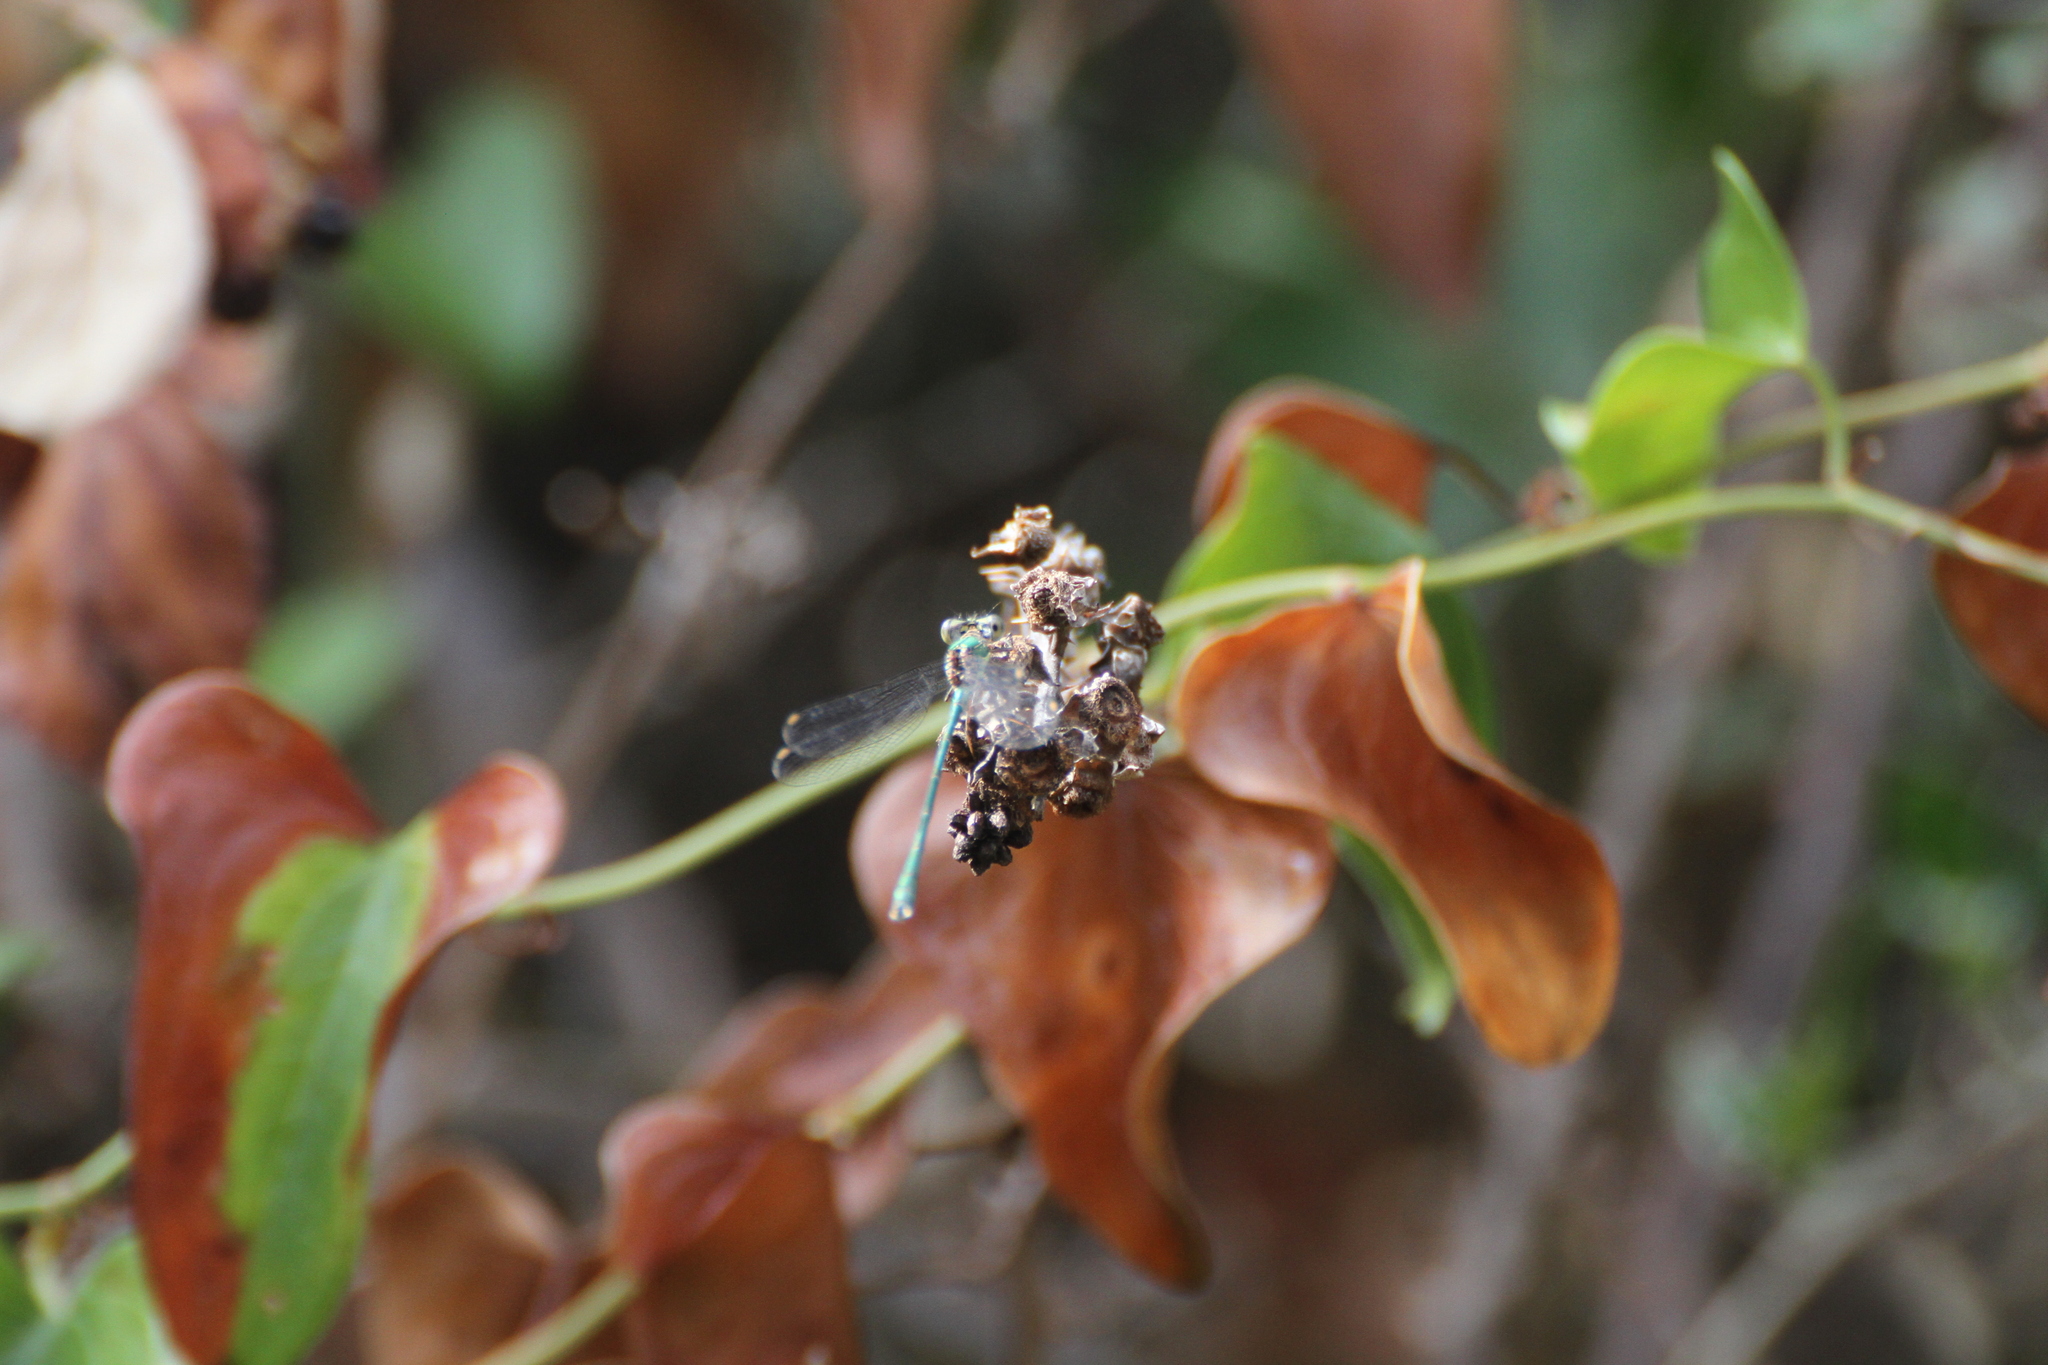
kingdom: Animalia
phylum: Arthropoda
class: Insecta
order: Odonata
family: Lestidae
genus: Chalcolestes
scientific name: Chalcolestes viridis
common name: Green emerald damselfly
